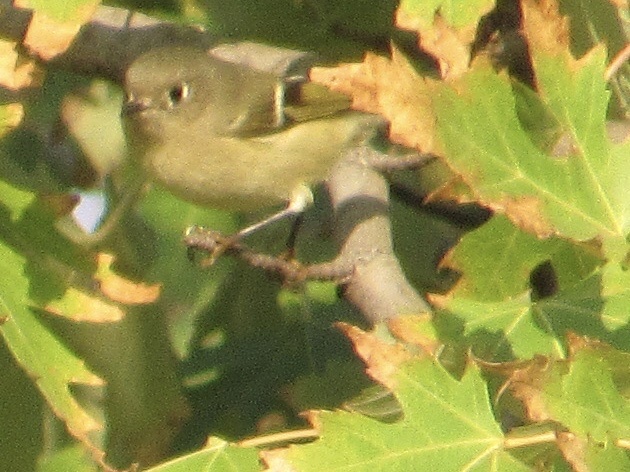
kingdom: Animalia
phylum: Chordata
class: Aves
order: Passeriformes
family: Regulidae
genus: Regulus
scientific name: Regulus calendula
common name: Ruby-crowned kinglet
